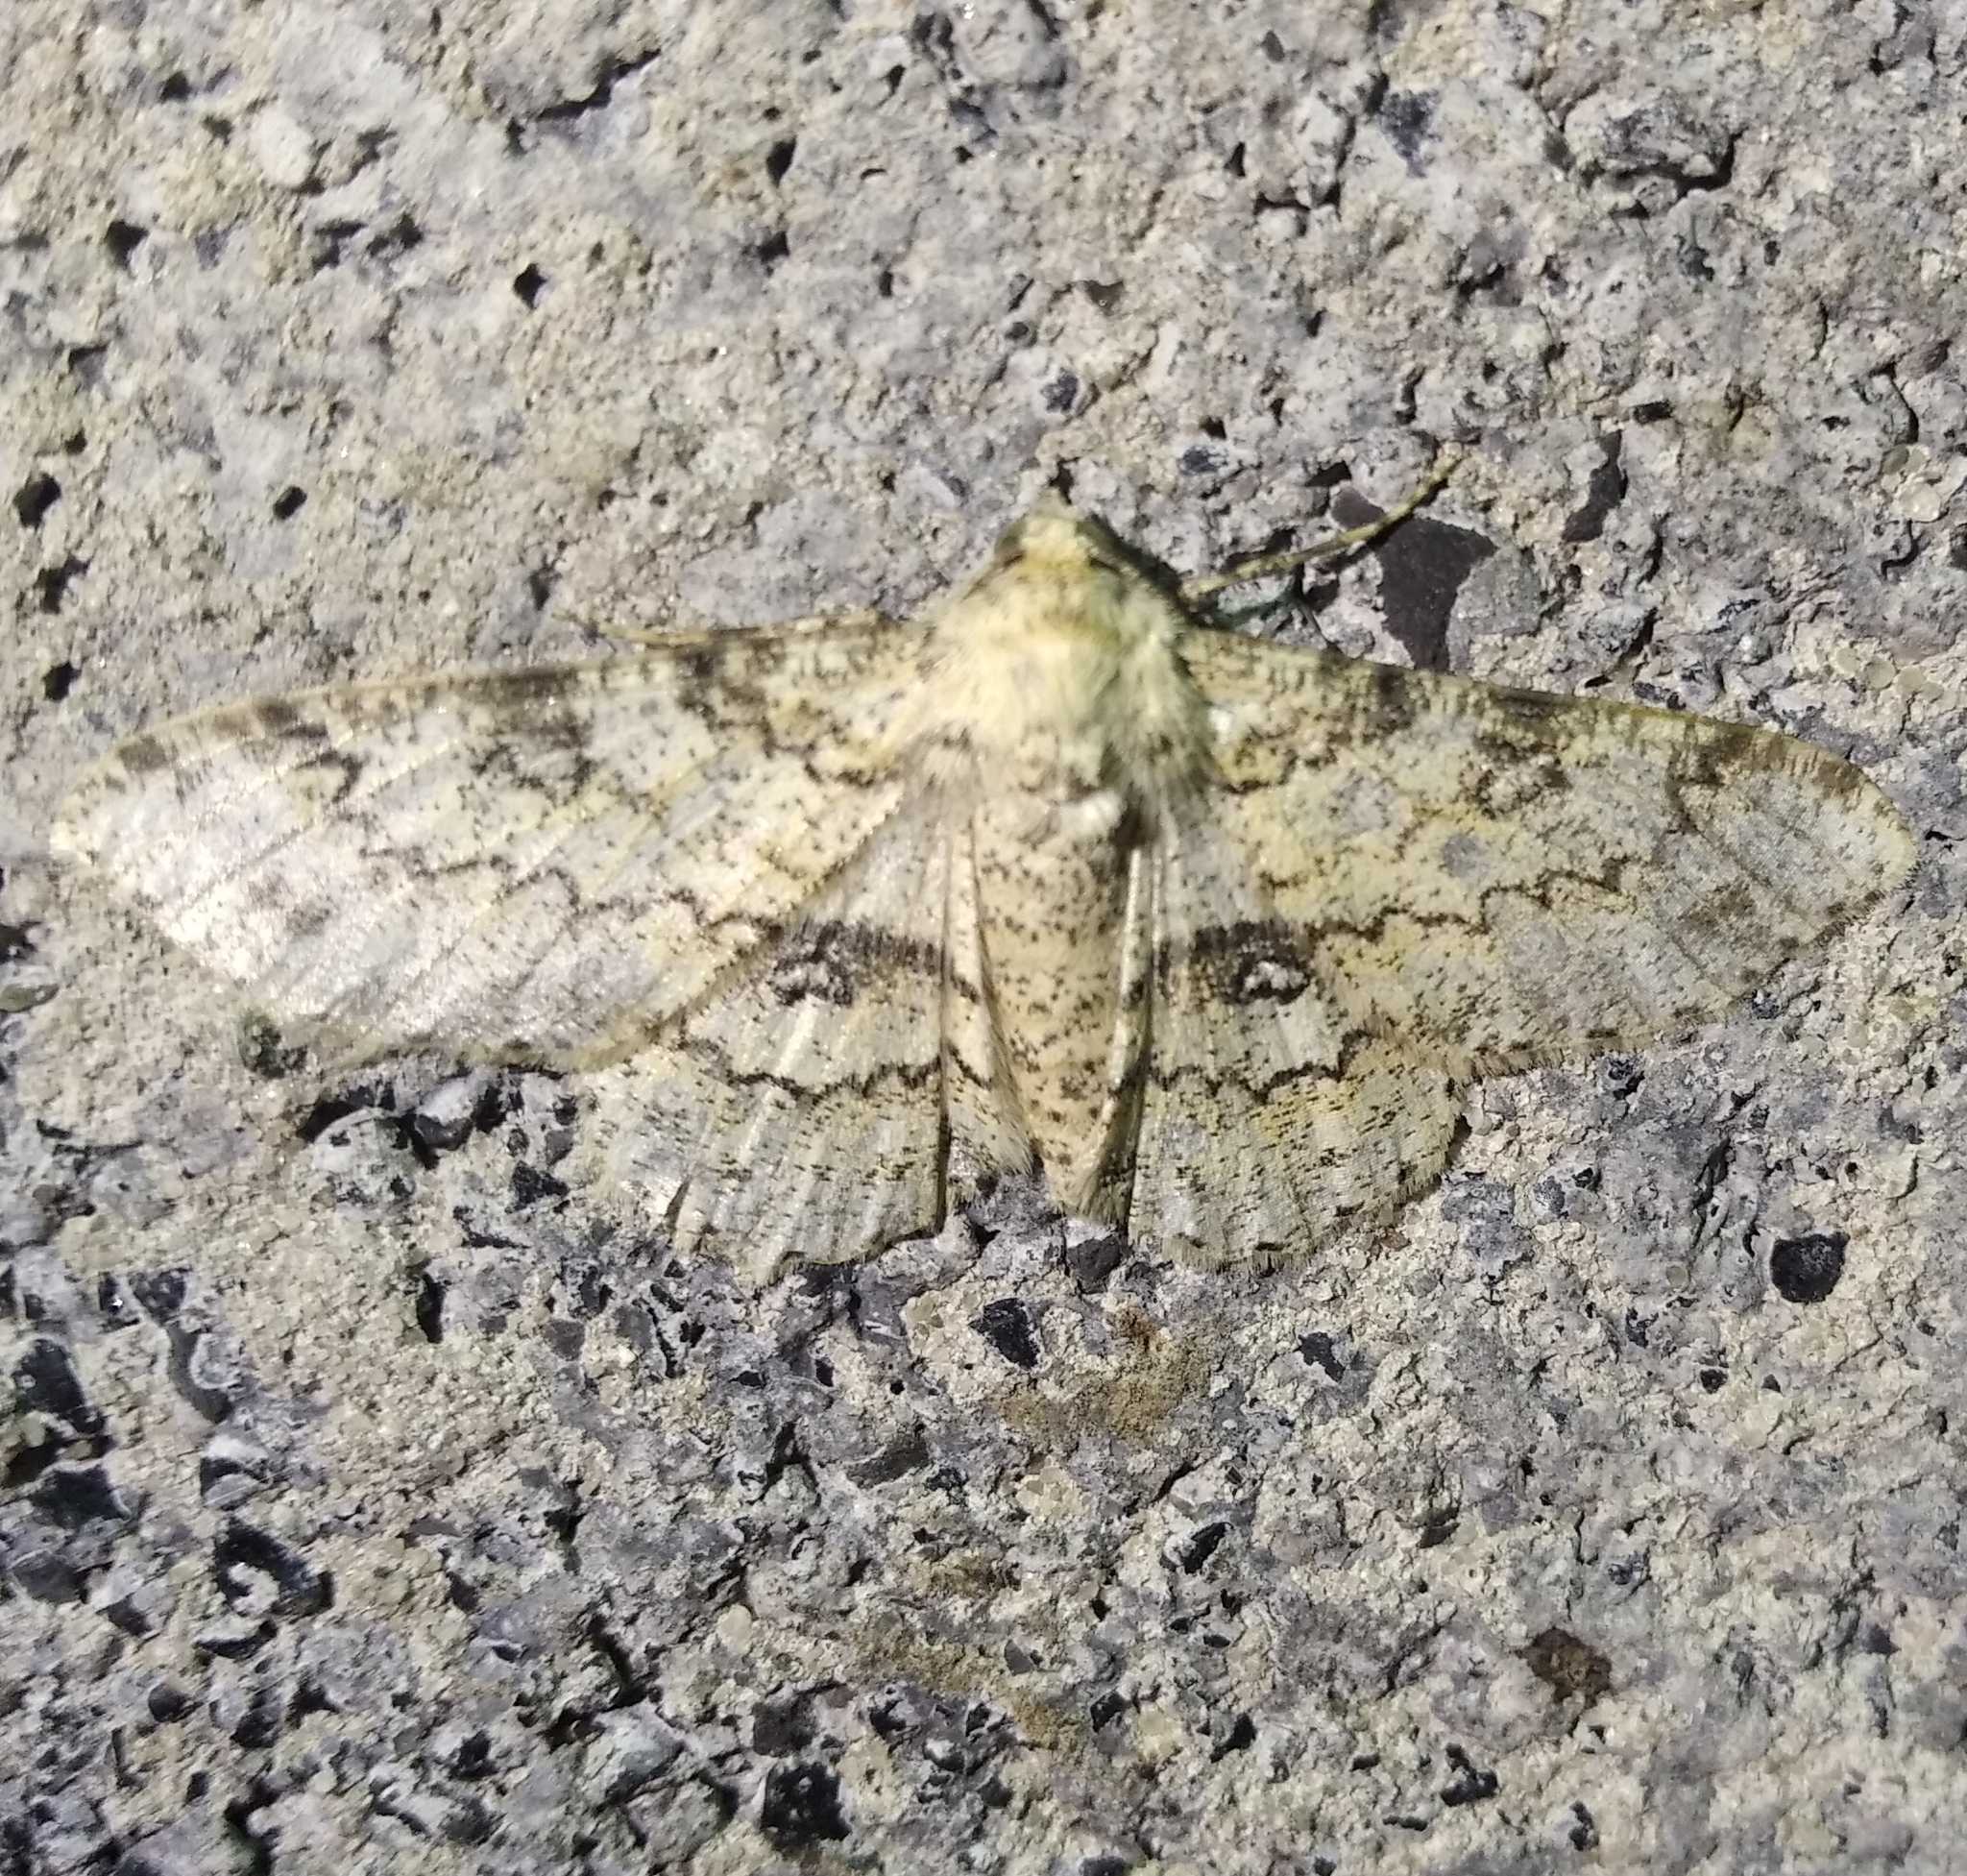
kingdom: Animalia
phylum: Arthropoda
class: Insecta
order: Lepidoptera
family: Geometridae
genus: Ascotis
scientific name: Ascotis selenaria
